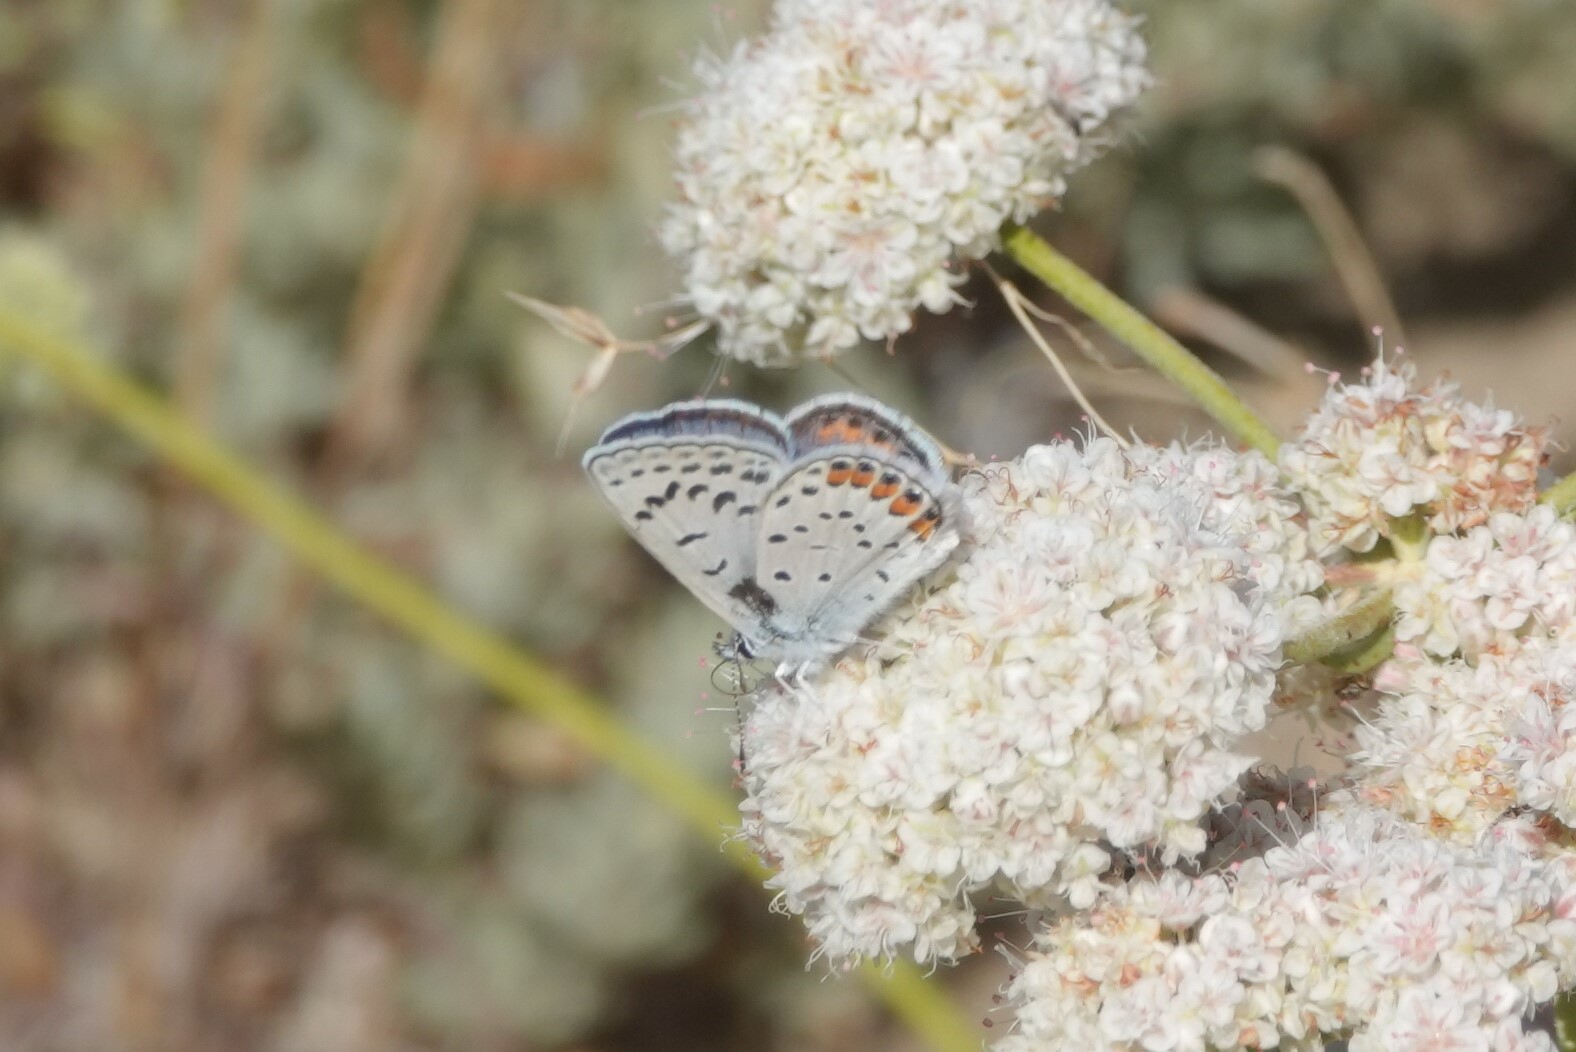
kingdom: Animalia
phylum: Arthropoda
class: Insecta
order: Lepidoptera
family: Lycaenidae
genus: Icaricia
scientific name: Icaricia acmon
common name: Acmon blue
